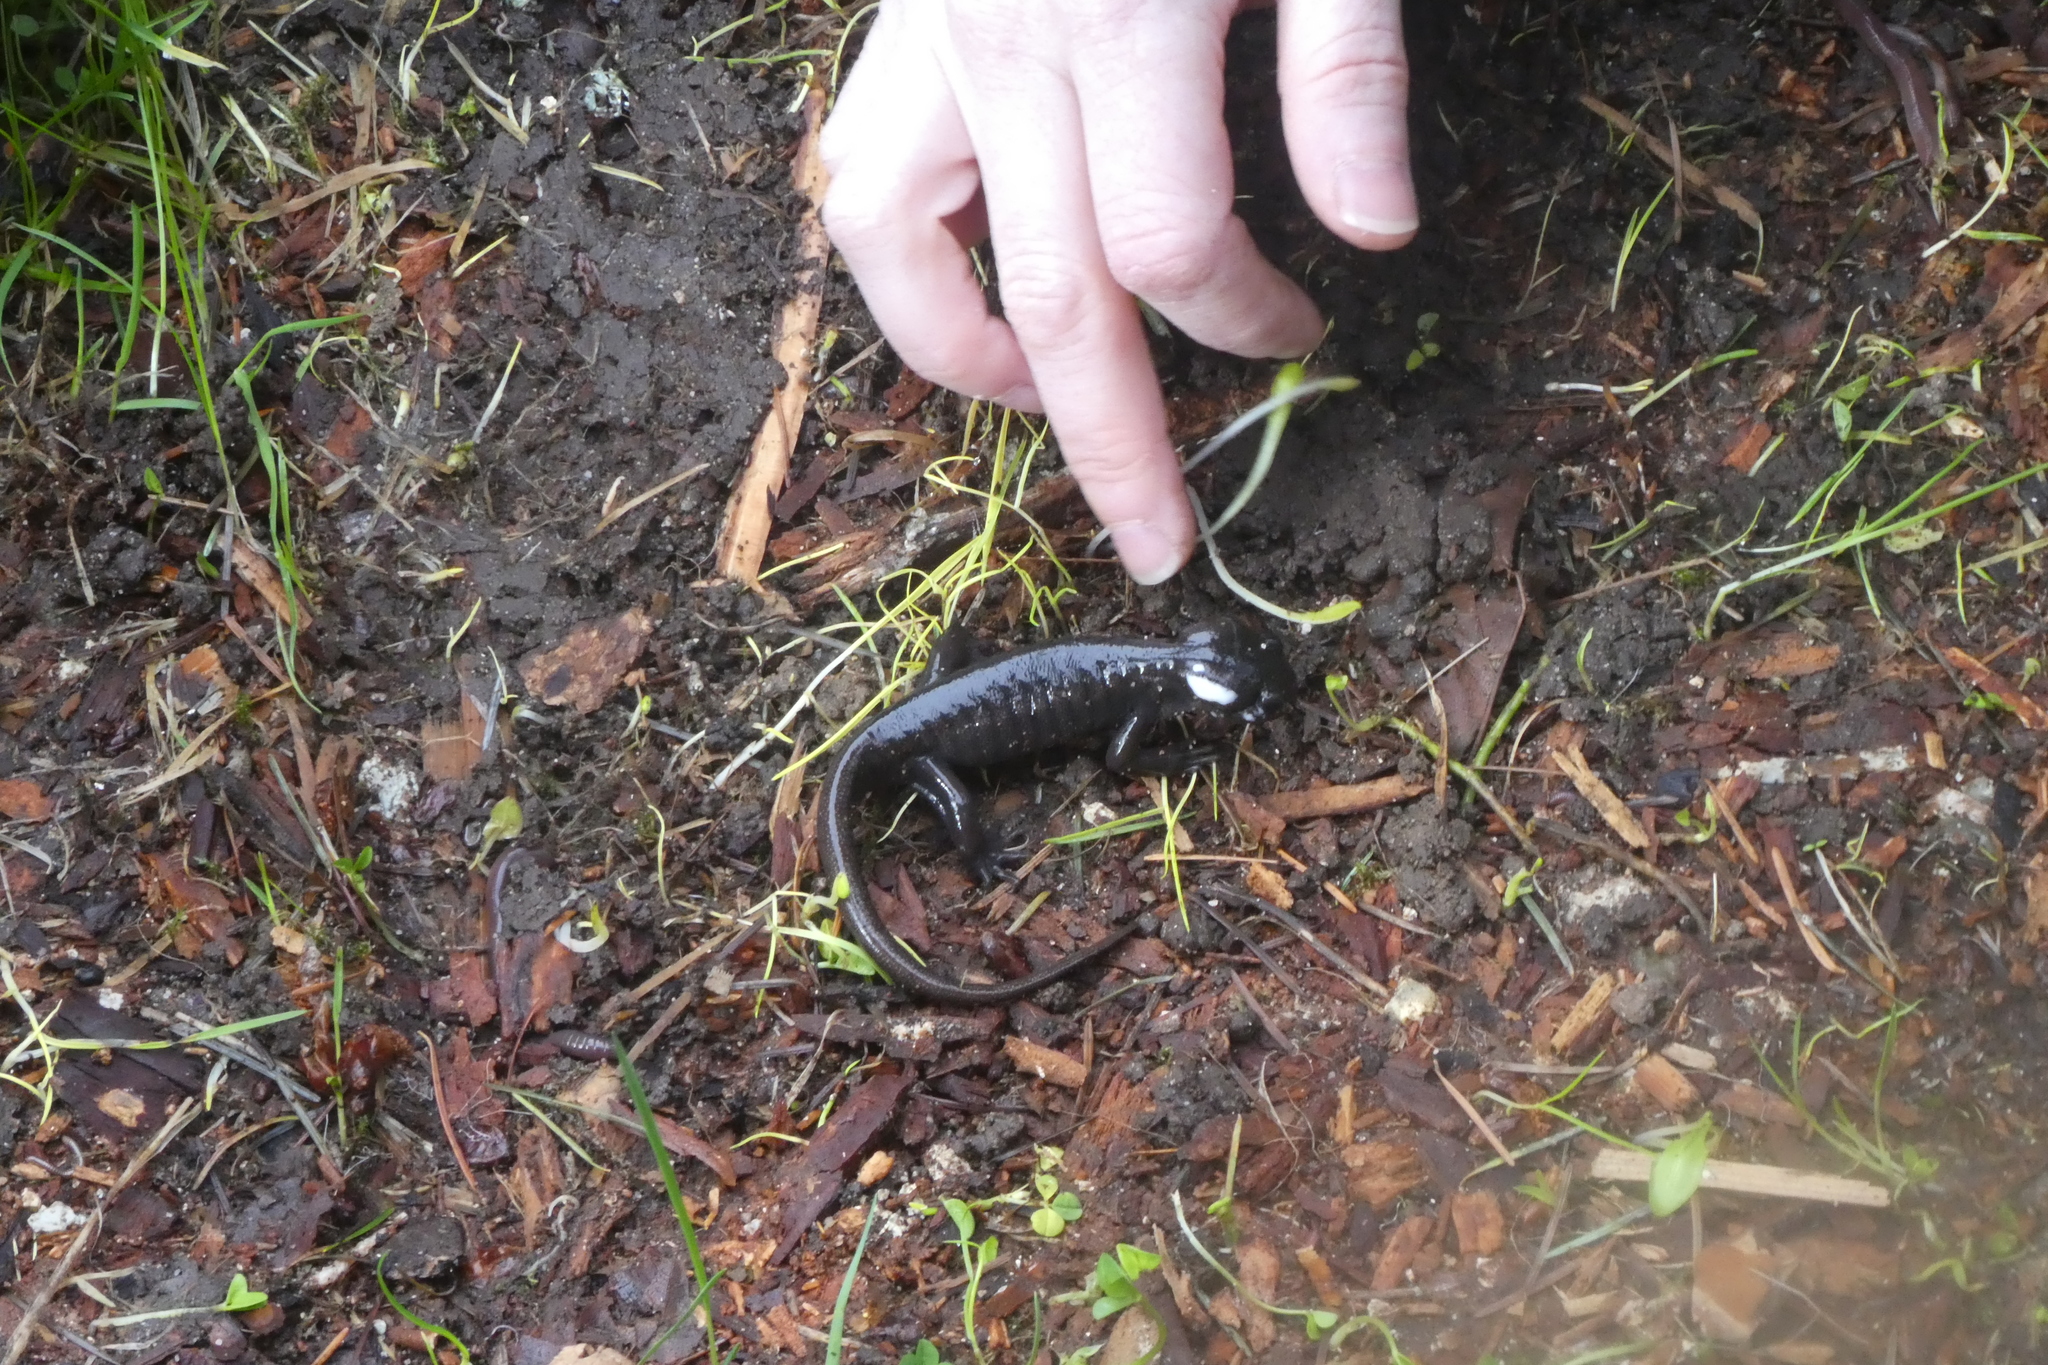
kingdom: Animalia
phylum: Chordata
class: Amphibia
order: Caudata
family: Ambystomatidae
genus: Ambystoma
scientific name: Ambystoma gracile
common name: Northwestern salamander
